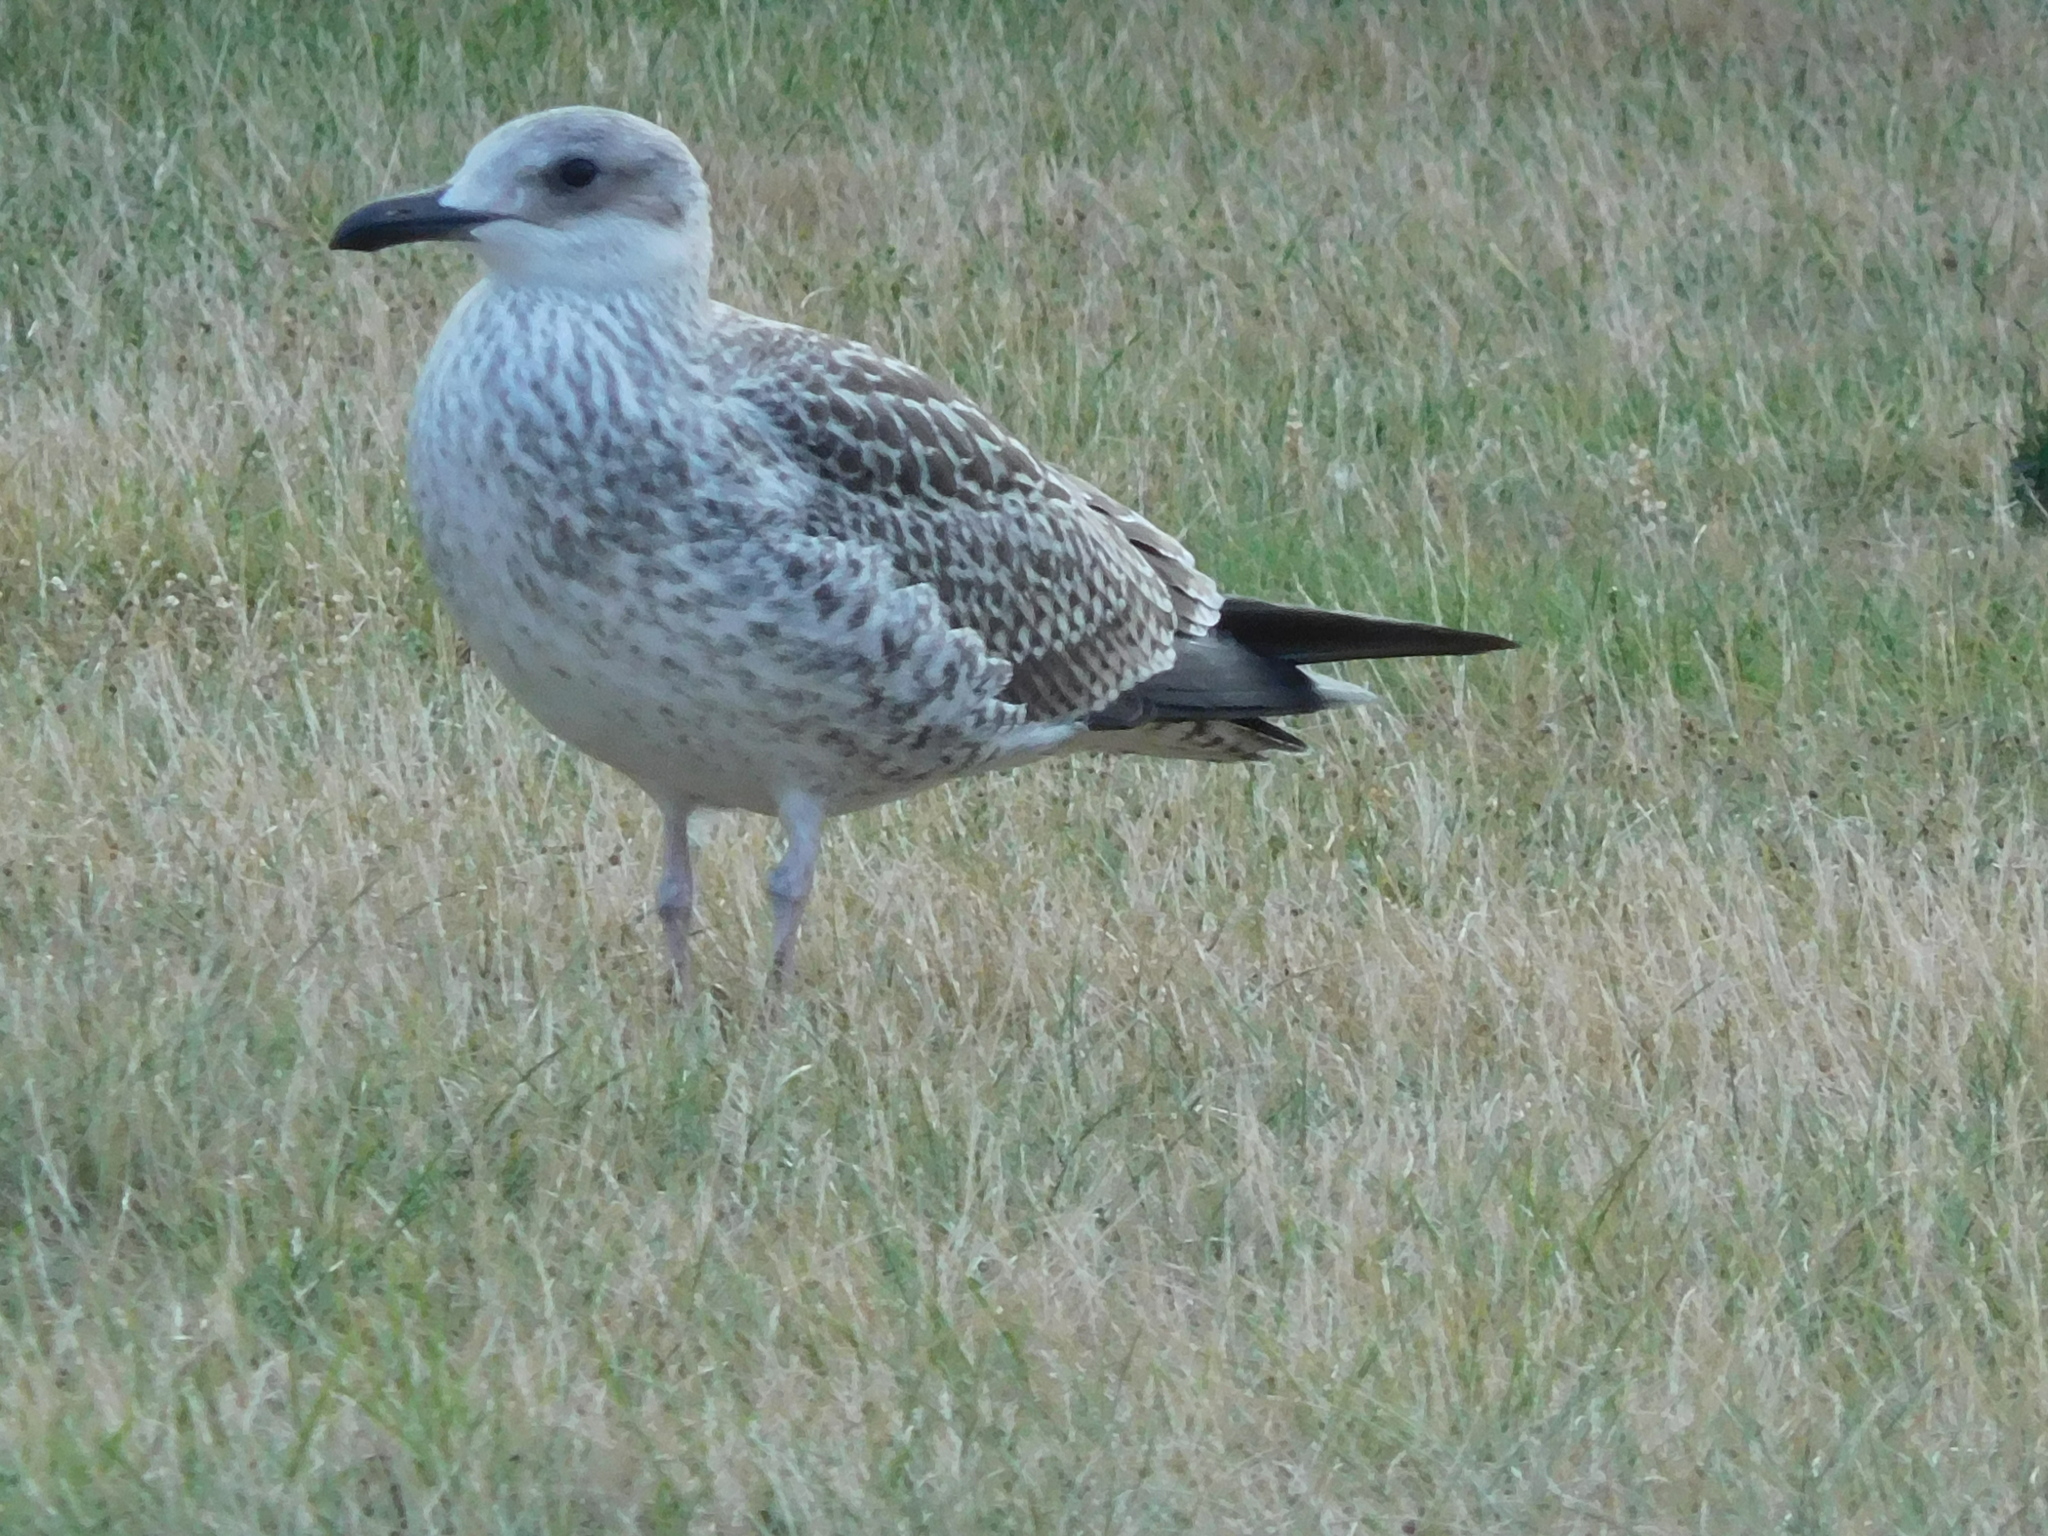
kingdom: Animalia
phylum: Chordata
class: Aves
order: Charadriiformes
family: Laridae
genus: Larus
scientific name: Larus fuscus
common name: Lesser black-backed gull
